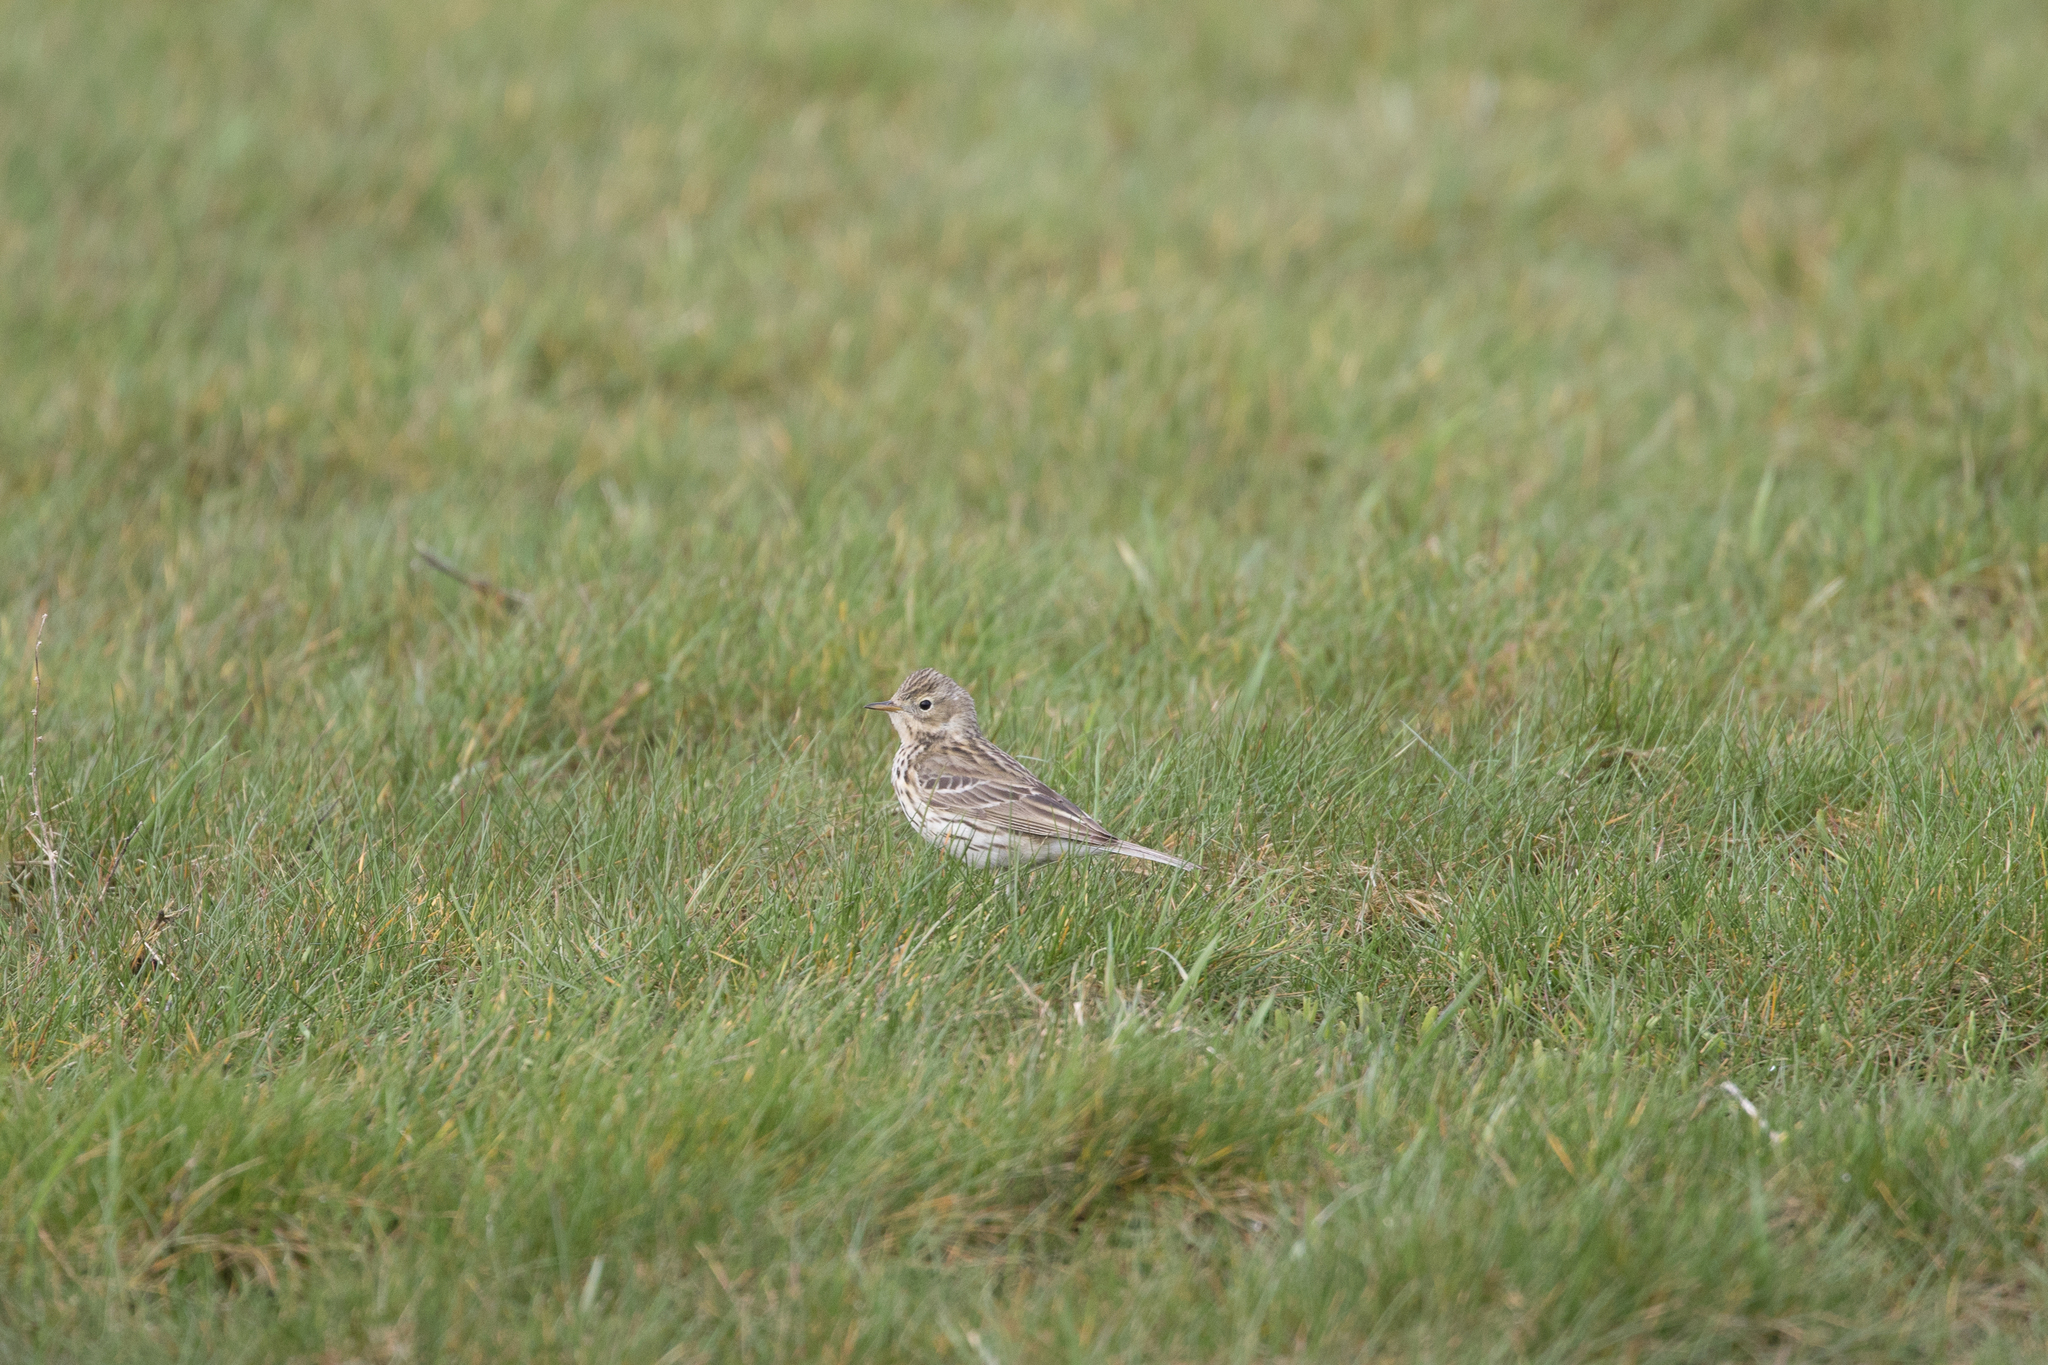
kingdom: Animalia
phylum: Chordata
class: Aves
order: Passeriformes
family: Motacillidae
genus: Anthus
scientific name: Anthus pratensis
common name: Meadow pipit
